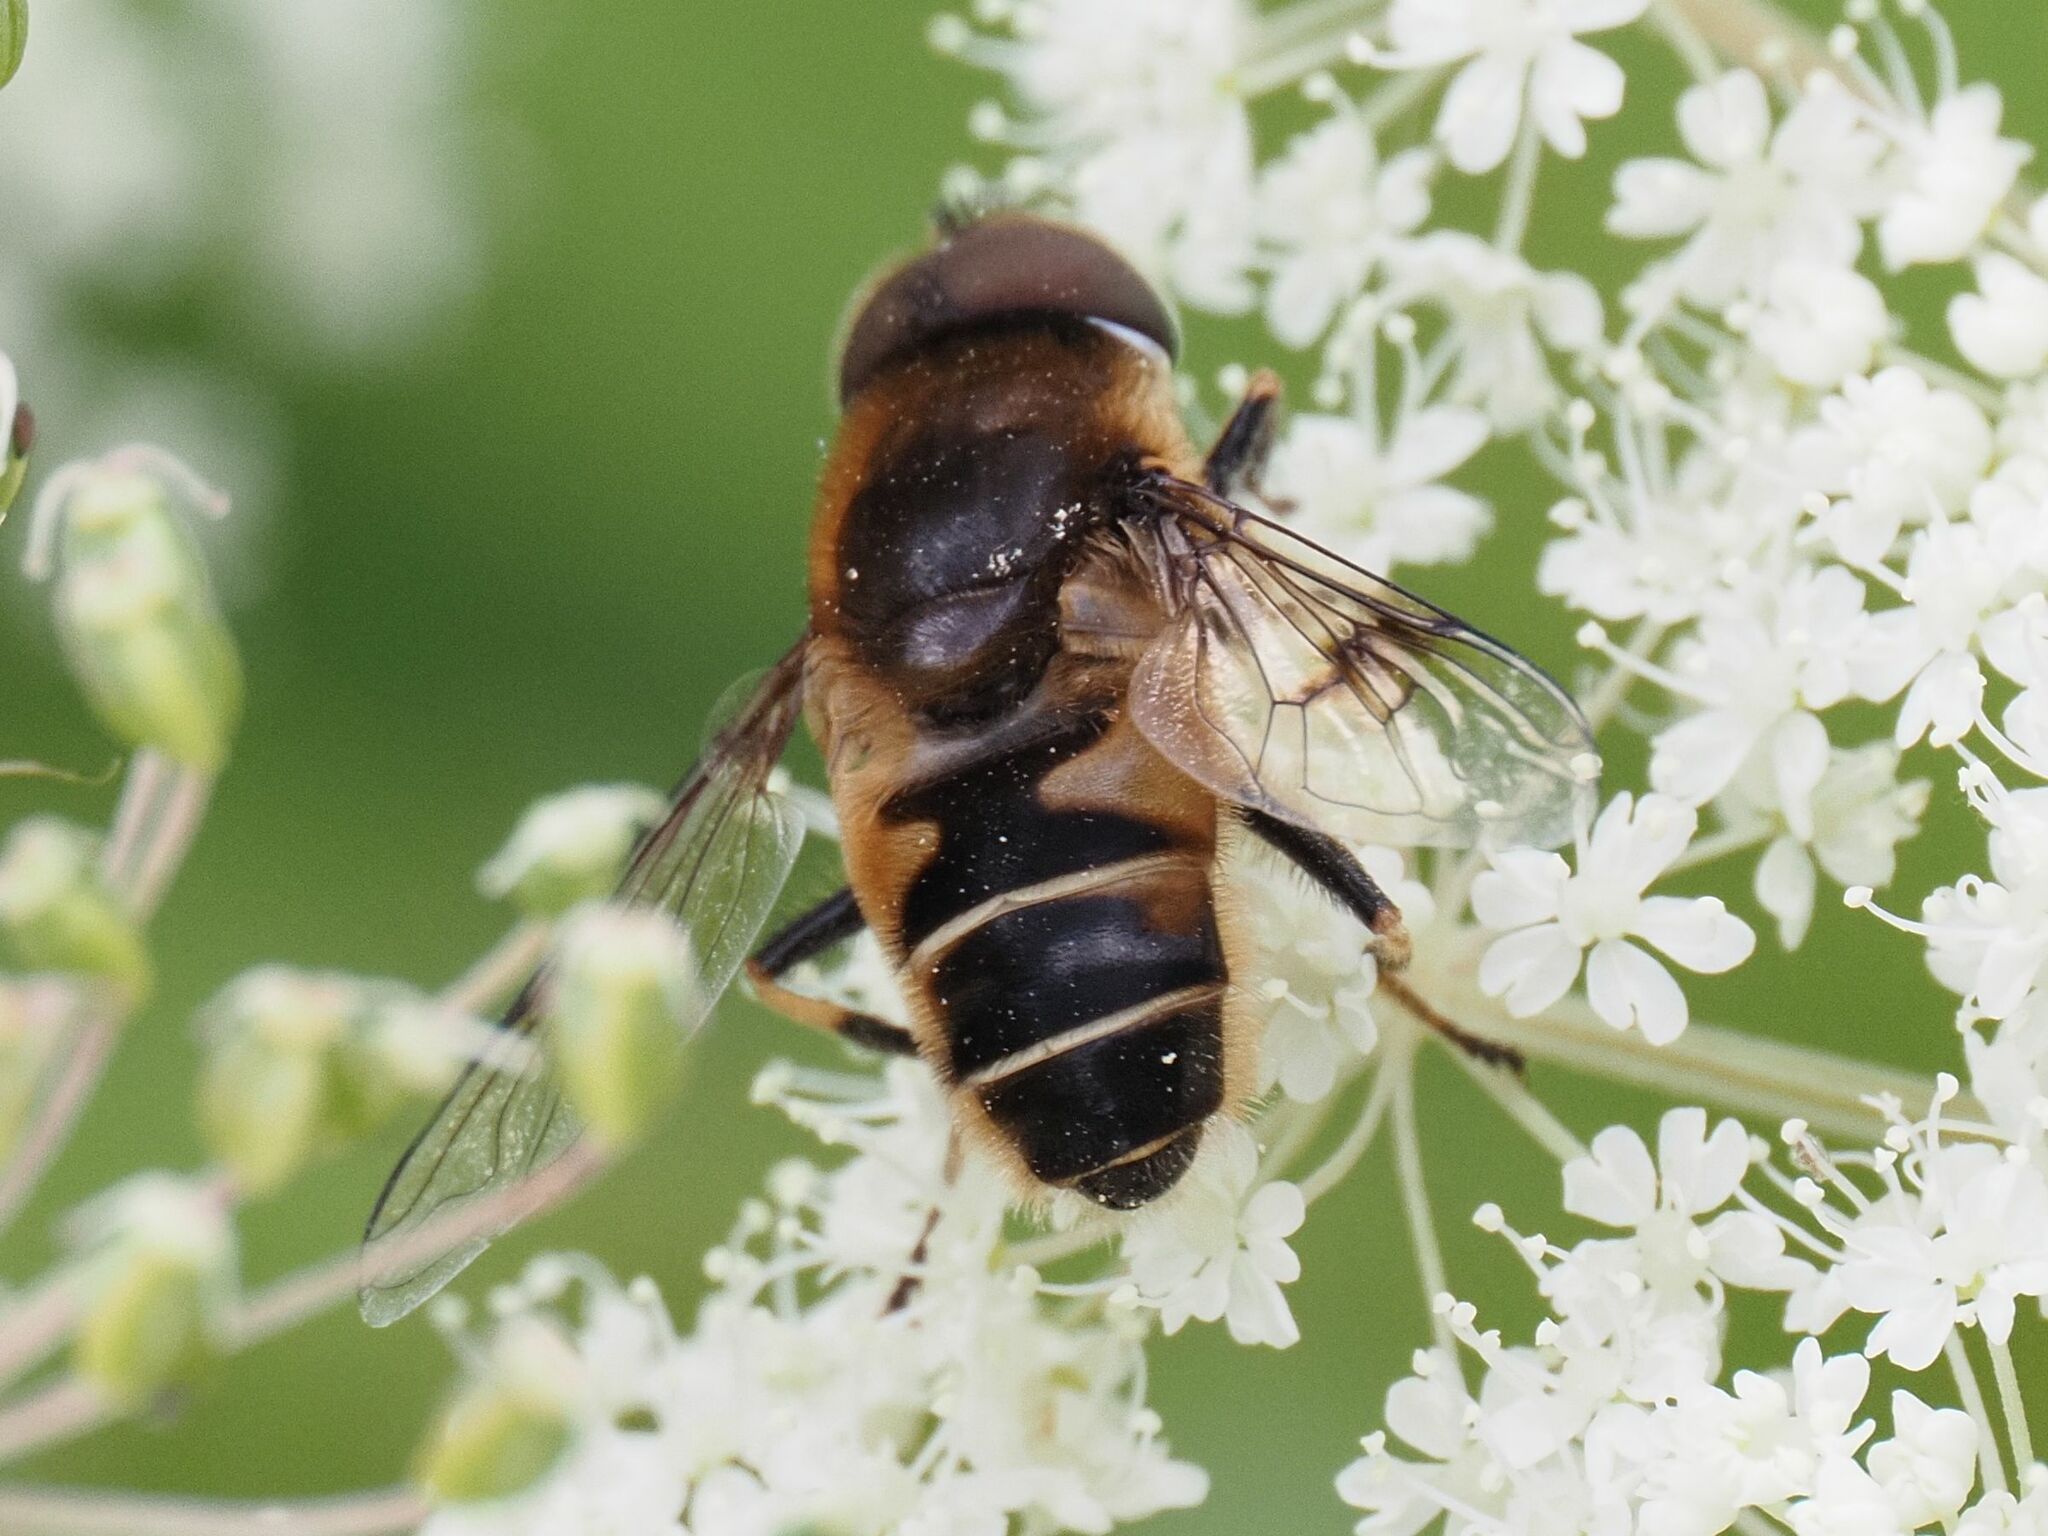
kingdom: Animalia
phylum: Arthropoda
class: Insecta
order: Diptera
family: Syrphidae
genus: Eristalis
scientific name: Eristalis rupium
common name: Hover fly
